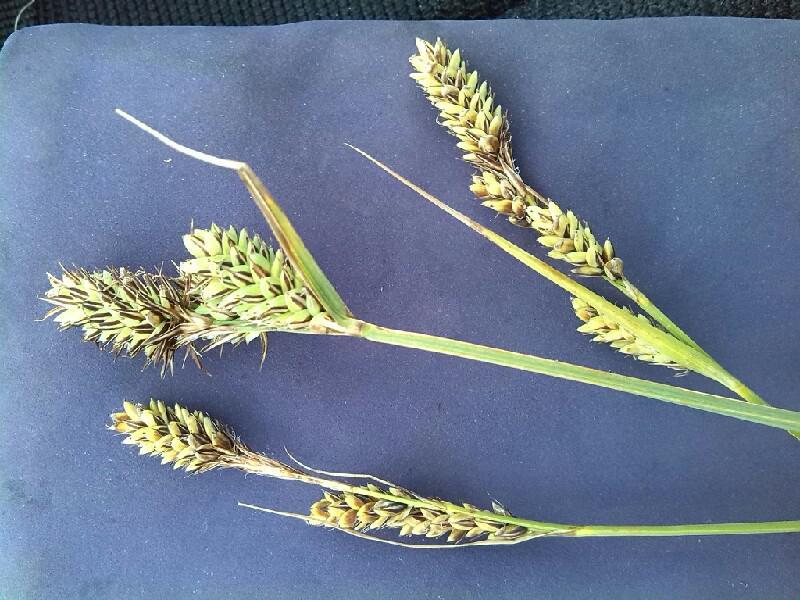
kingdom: Plantae
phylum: Tracheophyta
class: Liliopsida
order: Poales
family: Cyperaceae
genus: Carex
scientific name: Carex buxbaumii
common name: Club sedge
